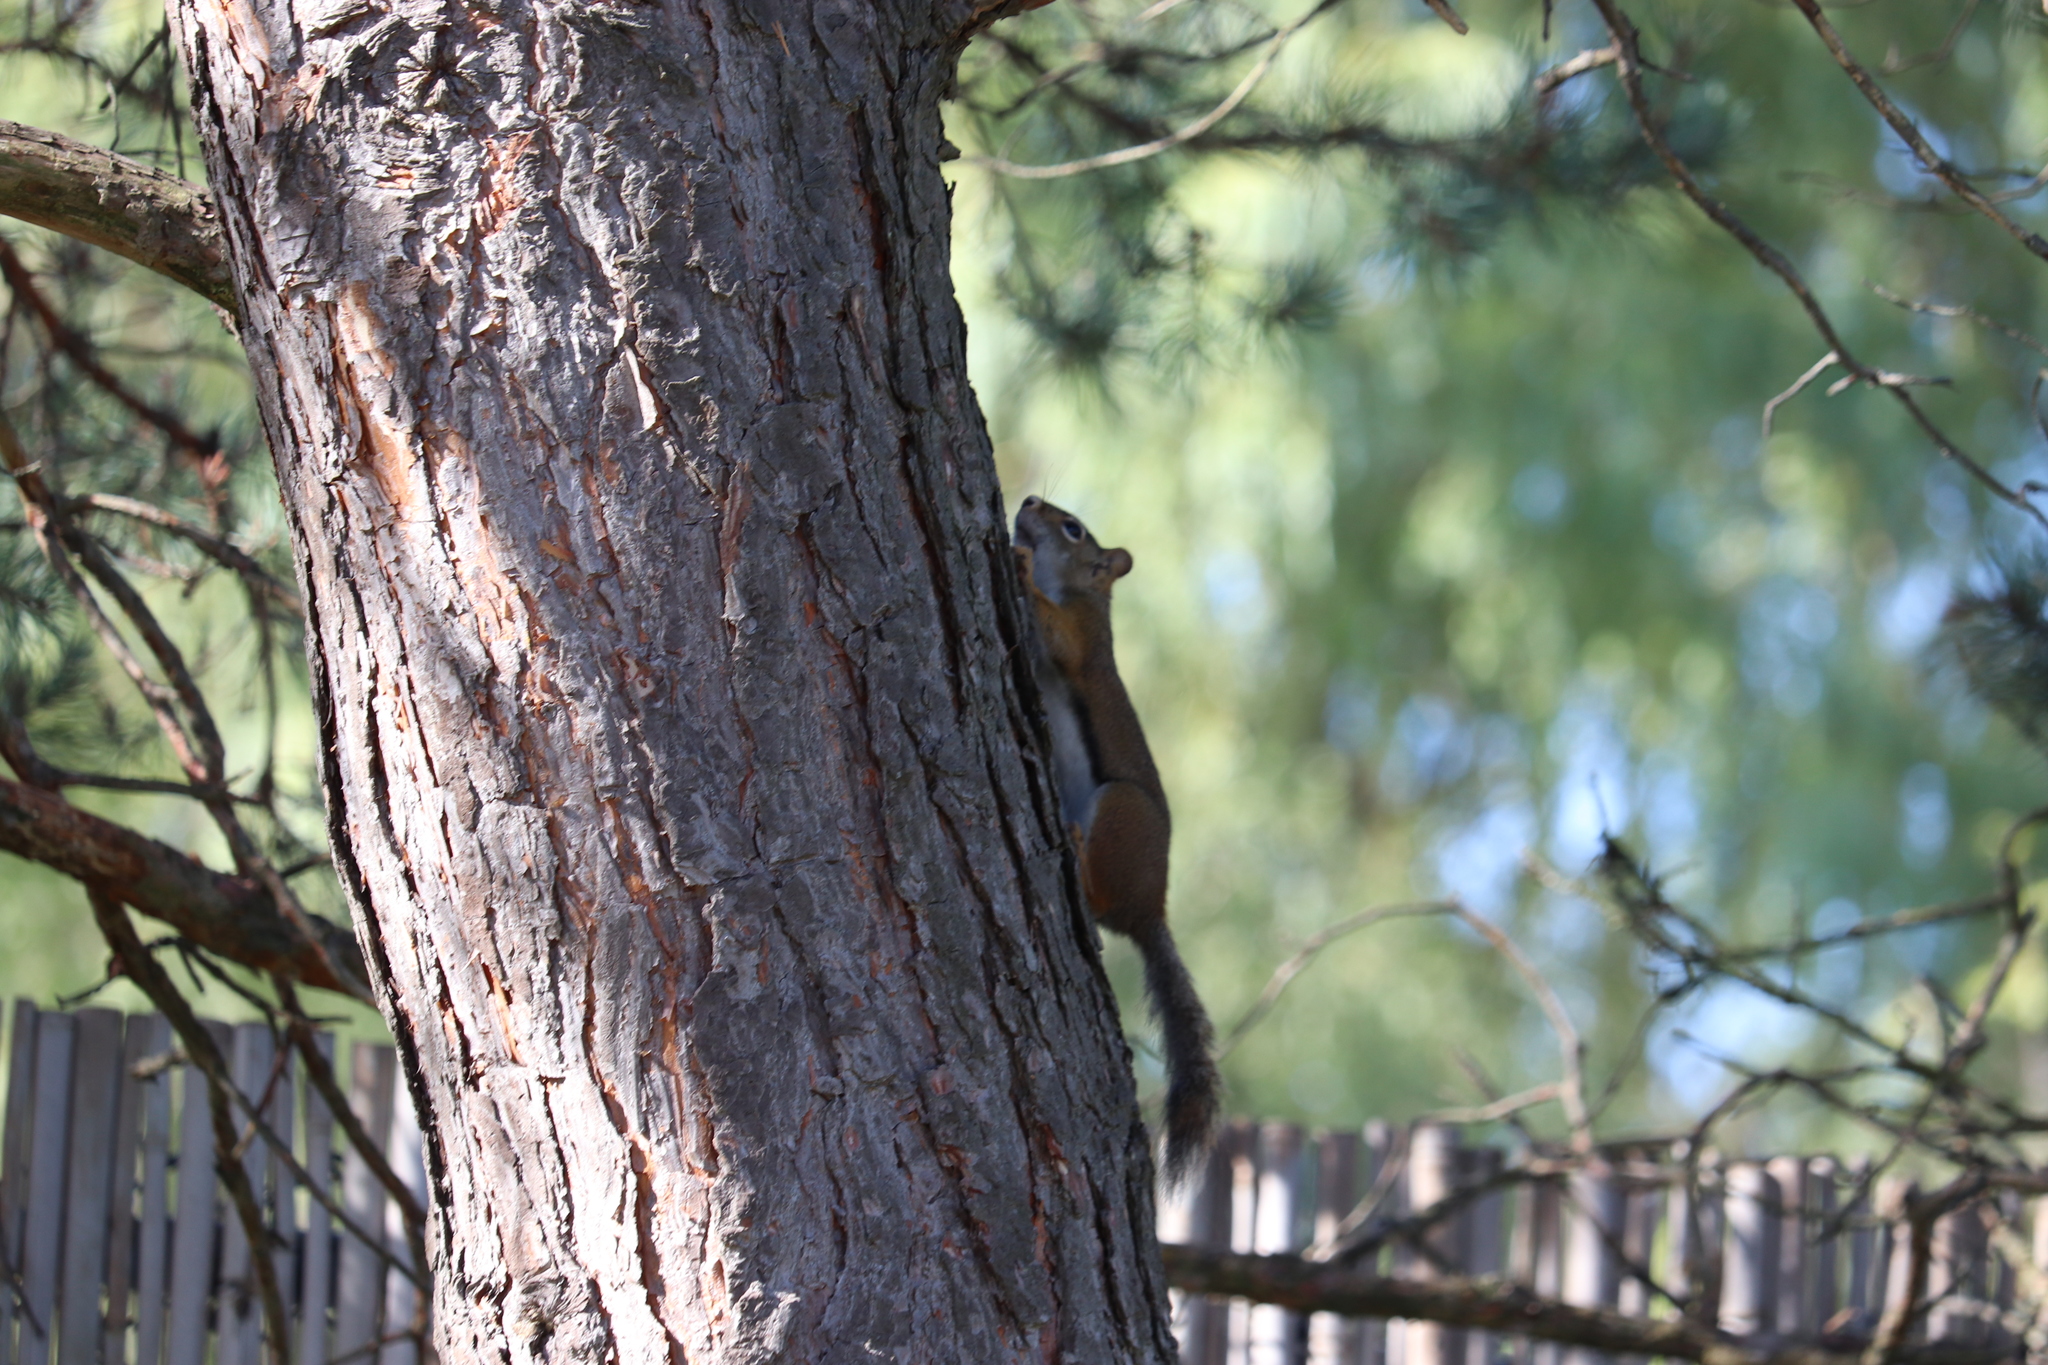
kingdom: Animalia
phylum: Chordata
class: Mammalia
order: Rodentia
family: Sciuridae
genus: Tamiasciurus
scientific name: Tamiasciurus hudsonicus
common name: Red squirrel
